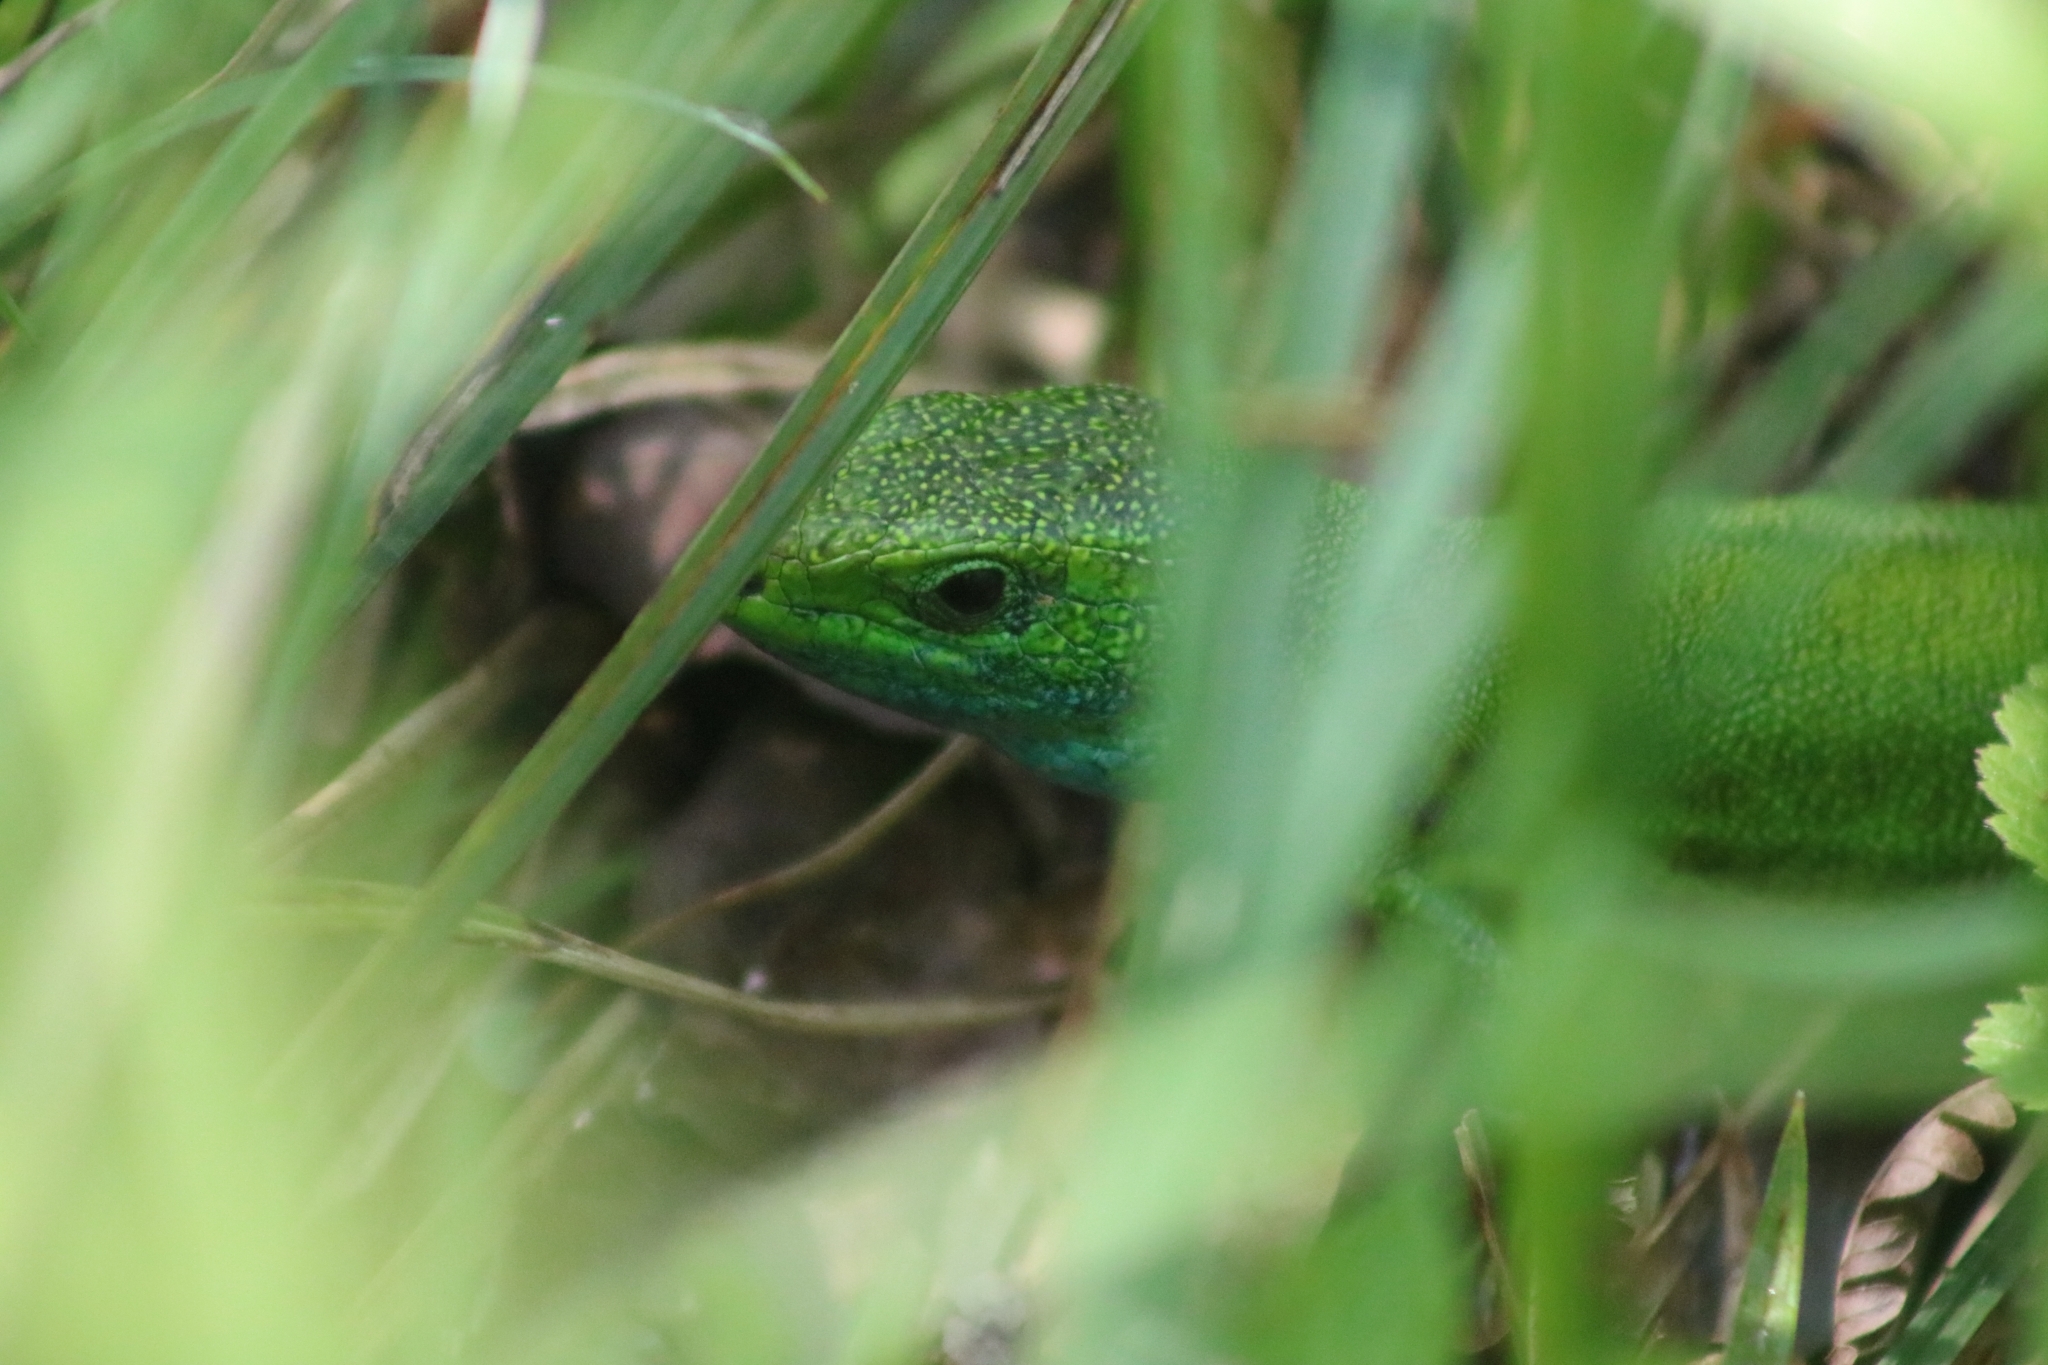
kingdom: Animalia
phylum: Chordata
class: Squamata
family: Lacertidae
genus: Lacerta
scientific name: Lacerta viridis
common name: European green lizard
